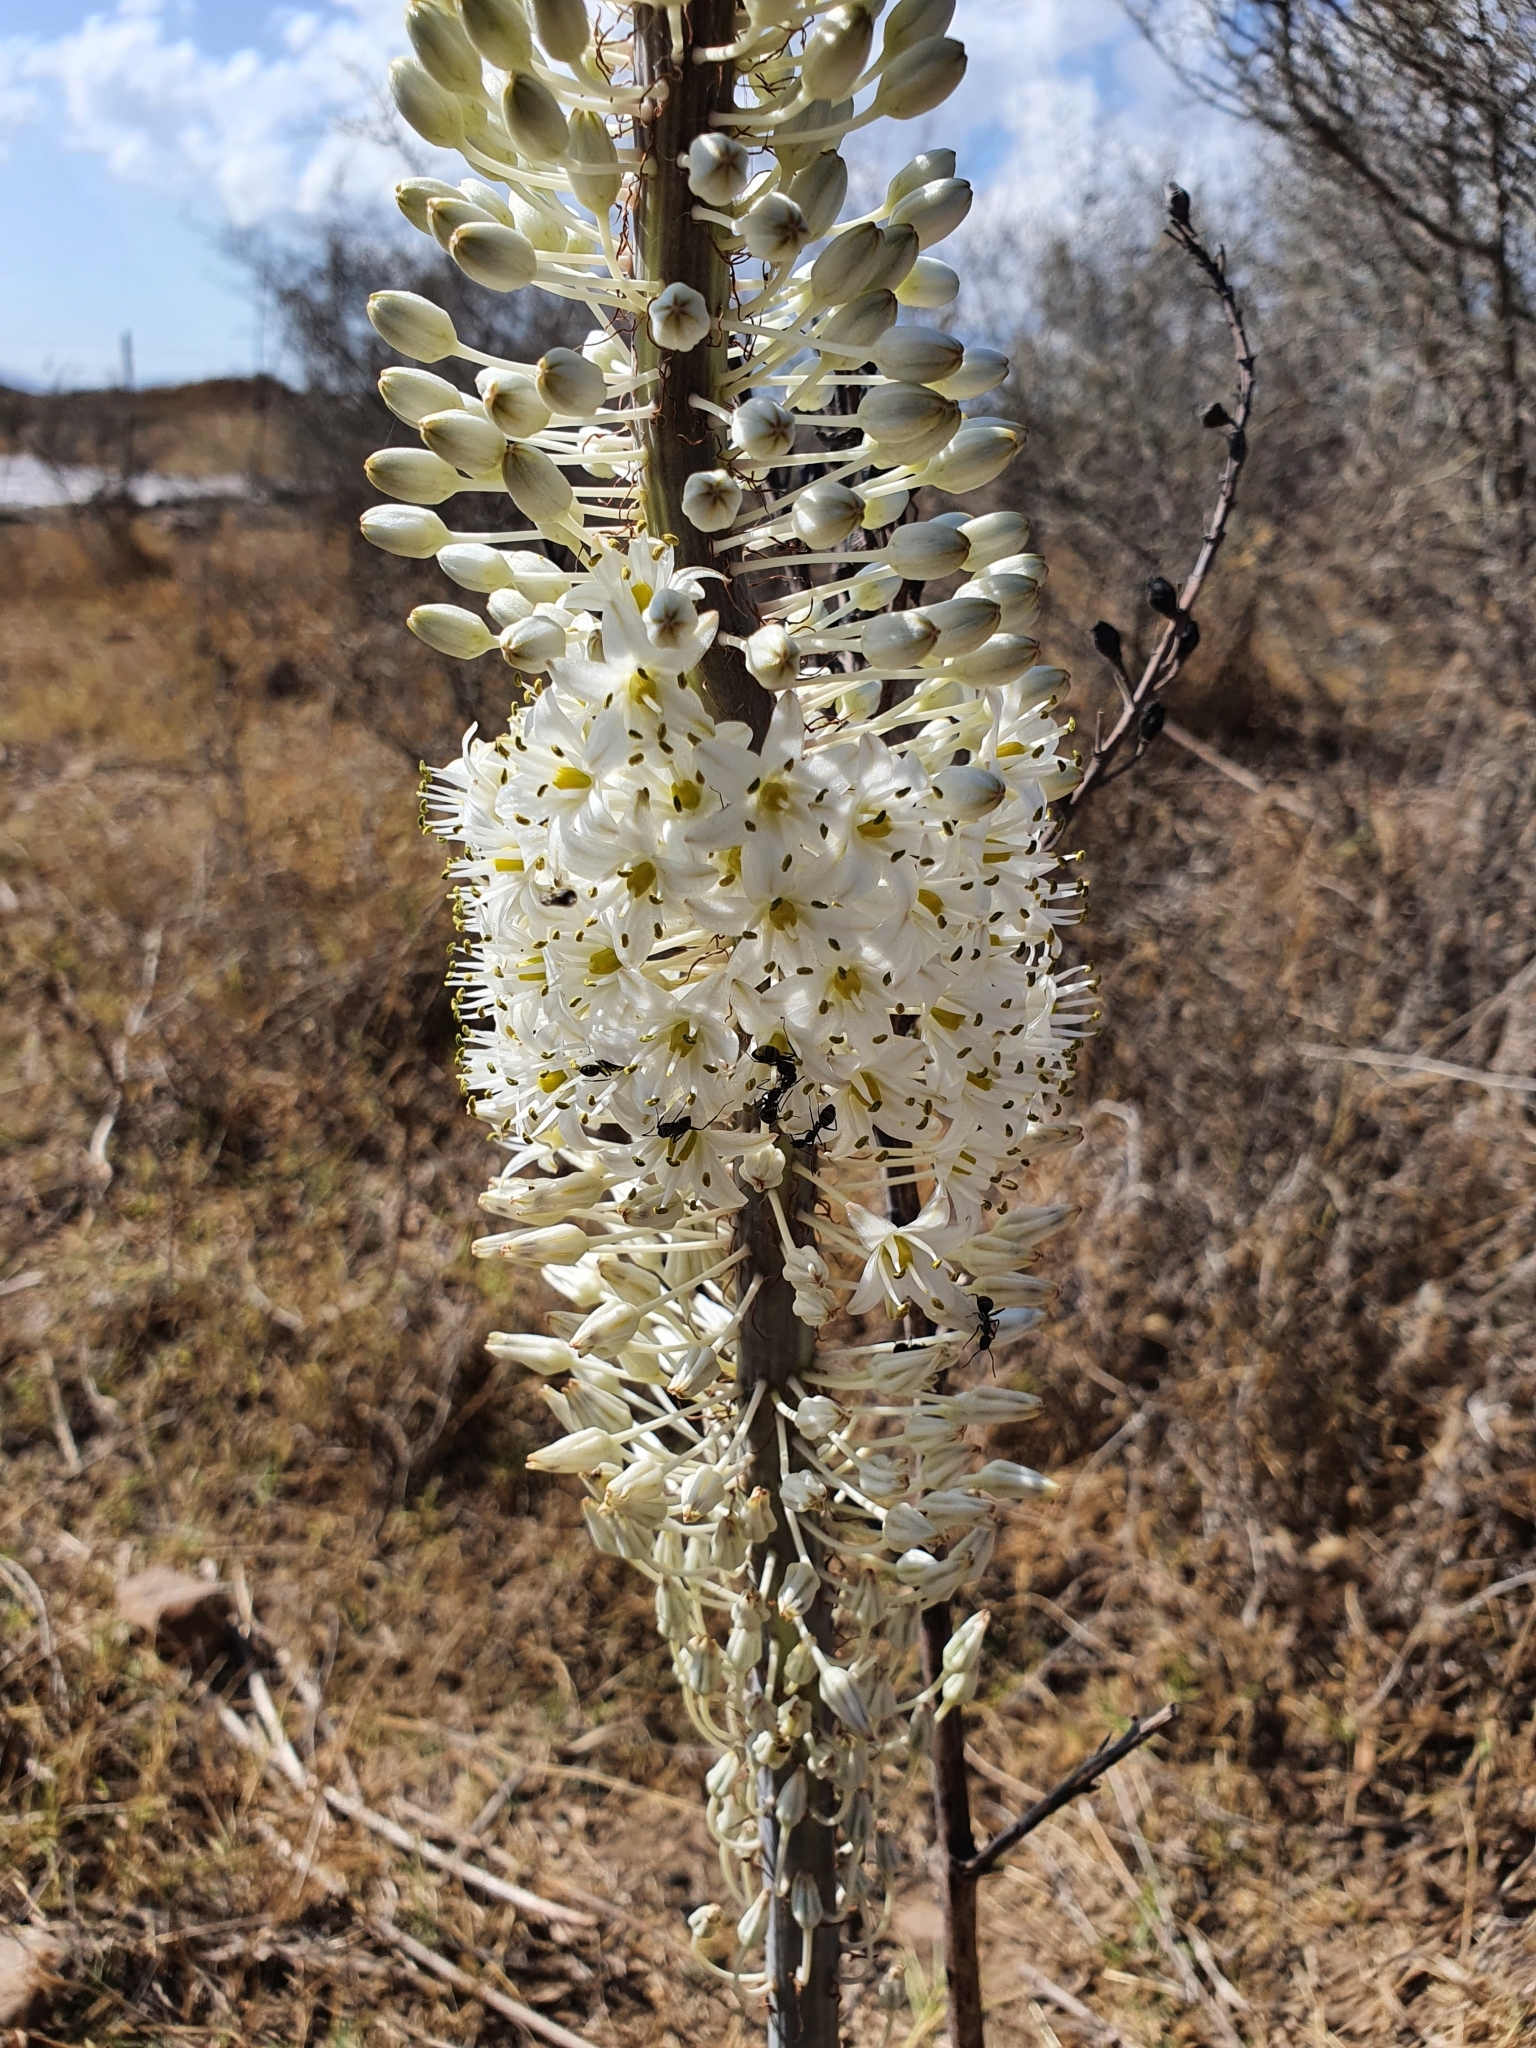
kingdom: Plantae
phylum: Tracheophyta
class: Liliopsida
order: Asparagales
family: Asparagaceae
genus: Drimia
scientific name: Drimia numidica
